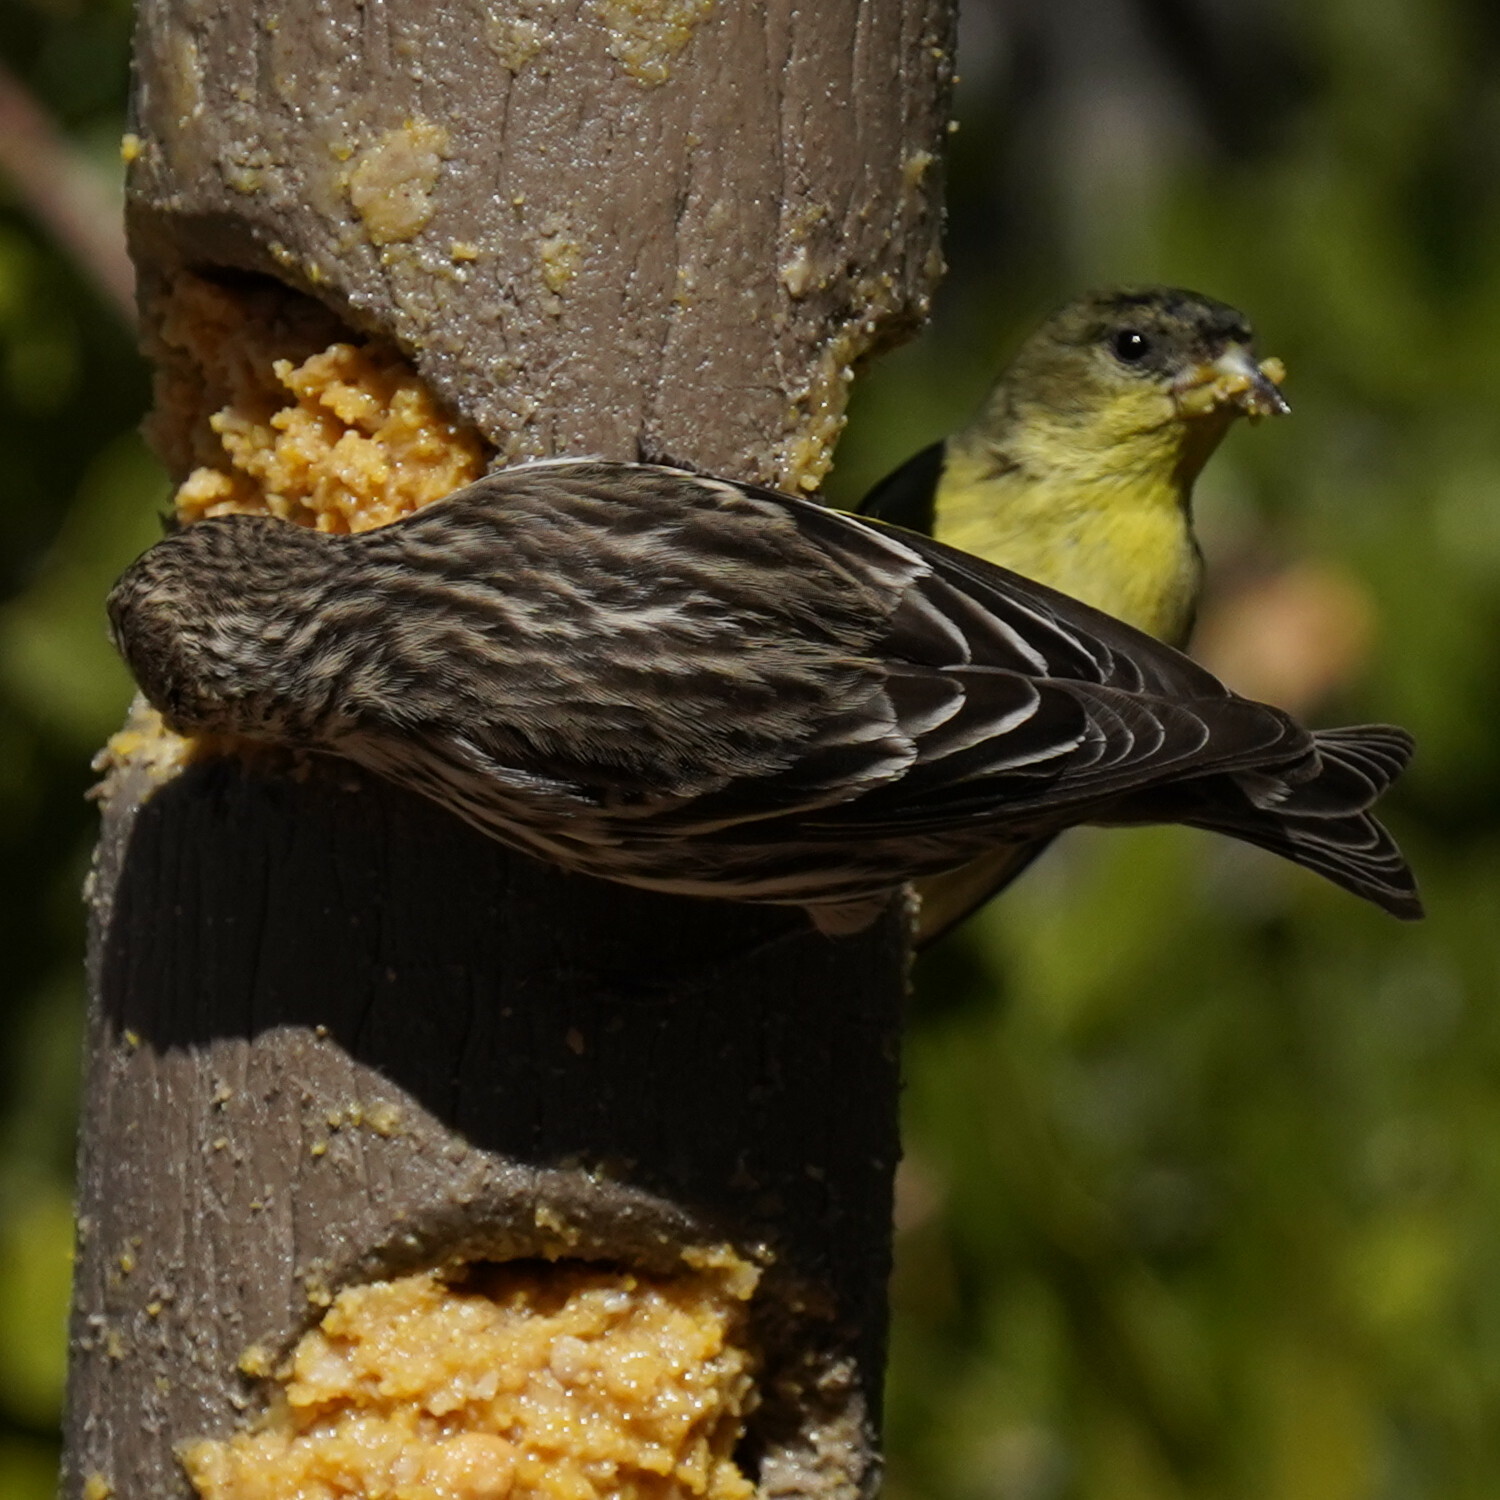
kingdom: Animalia
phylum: Chordata
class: Aves
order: Passeriformes
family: Fringillidae
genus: Spinus
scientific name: Spinus pinus
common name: Pine siskin
